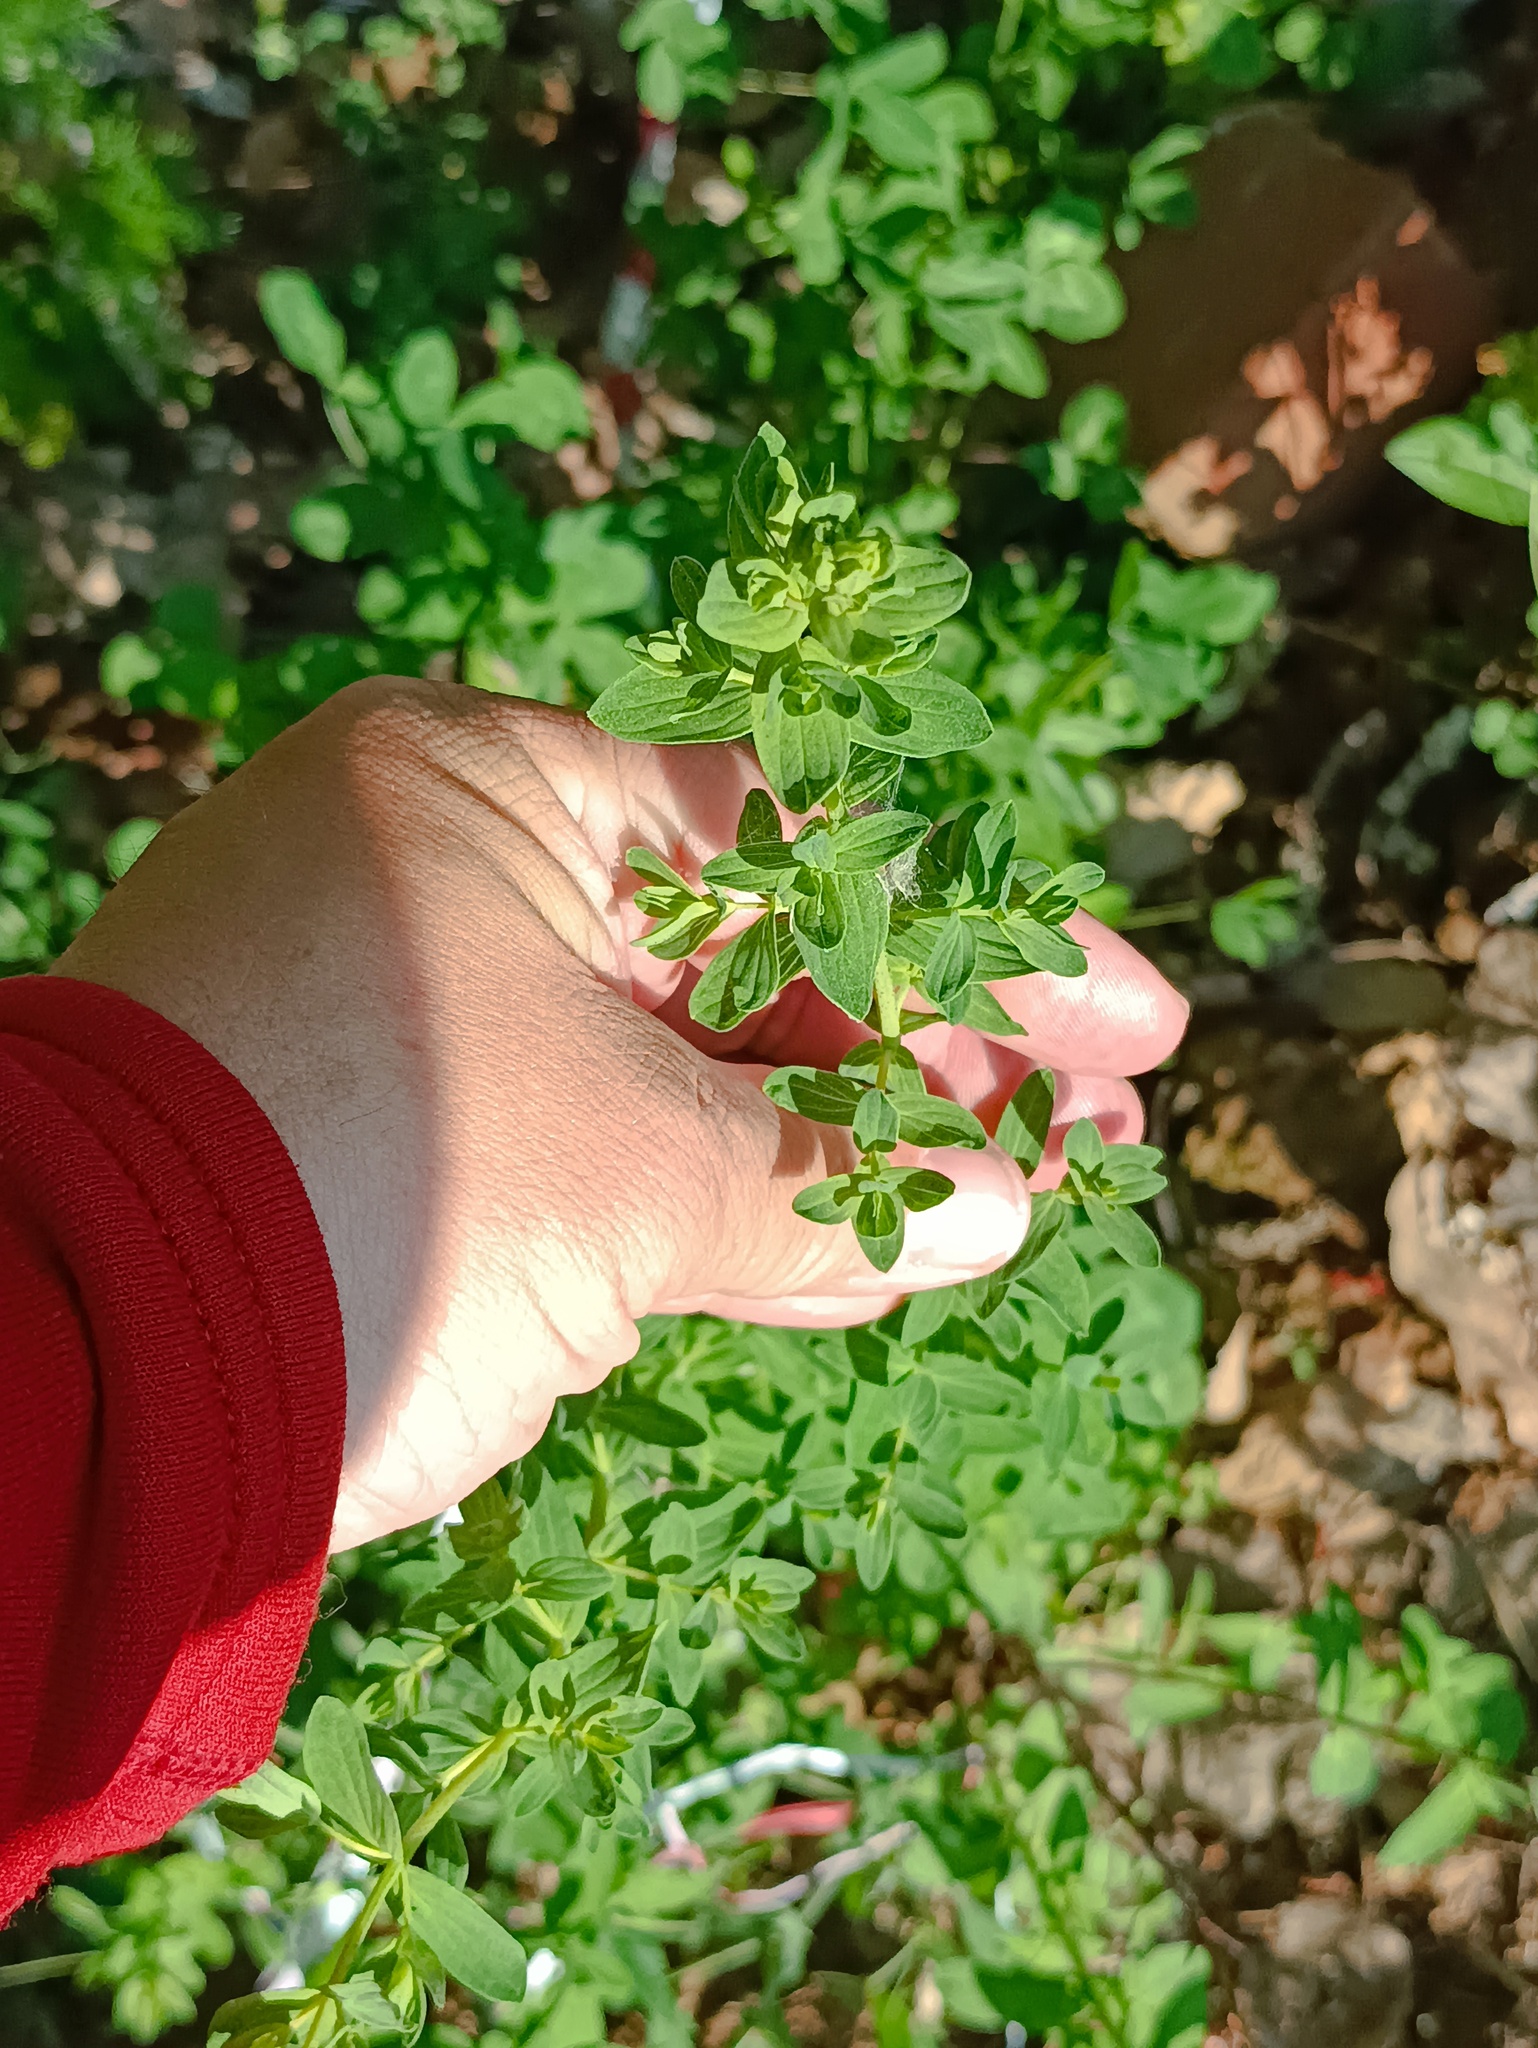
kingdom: Plantae
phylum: Tracheophyta
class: Magnoliopsida
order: Malpighiales
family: Hypericaceae
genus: Hypericum
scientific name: Hypericum perforatum
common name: Common st. johnswort
